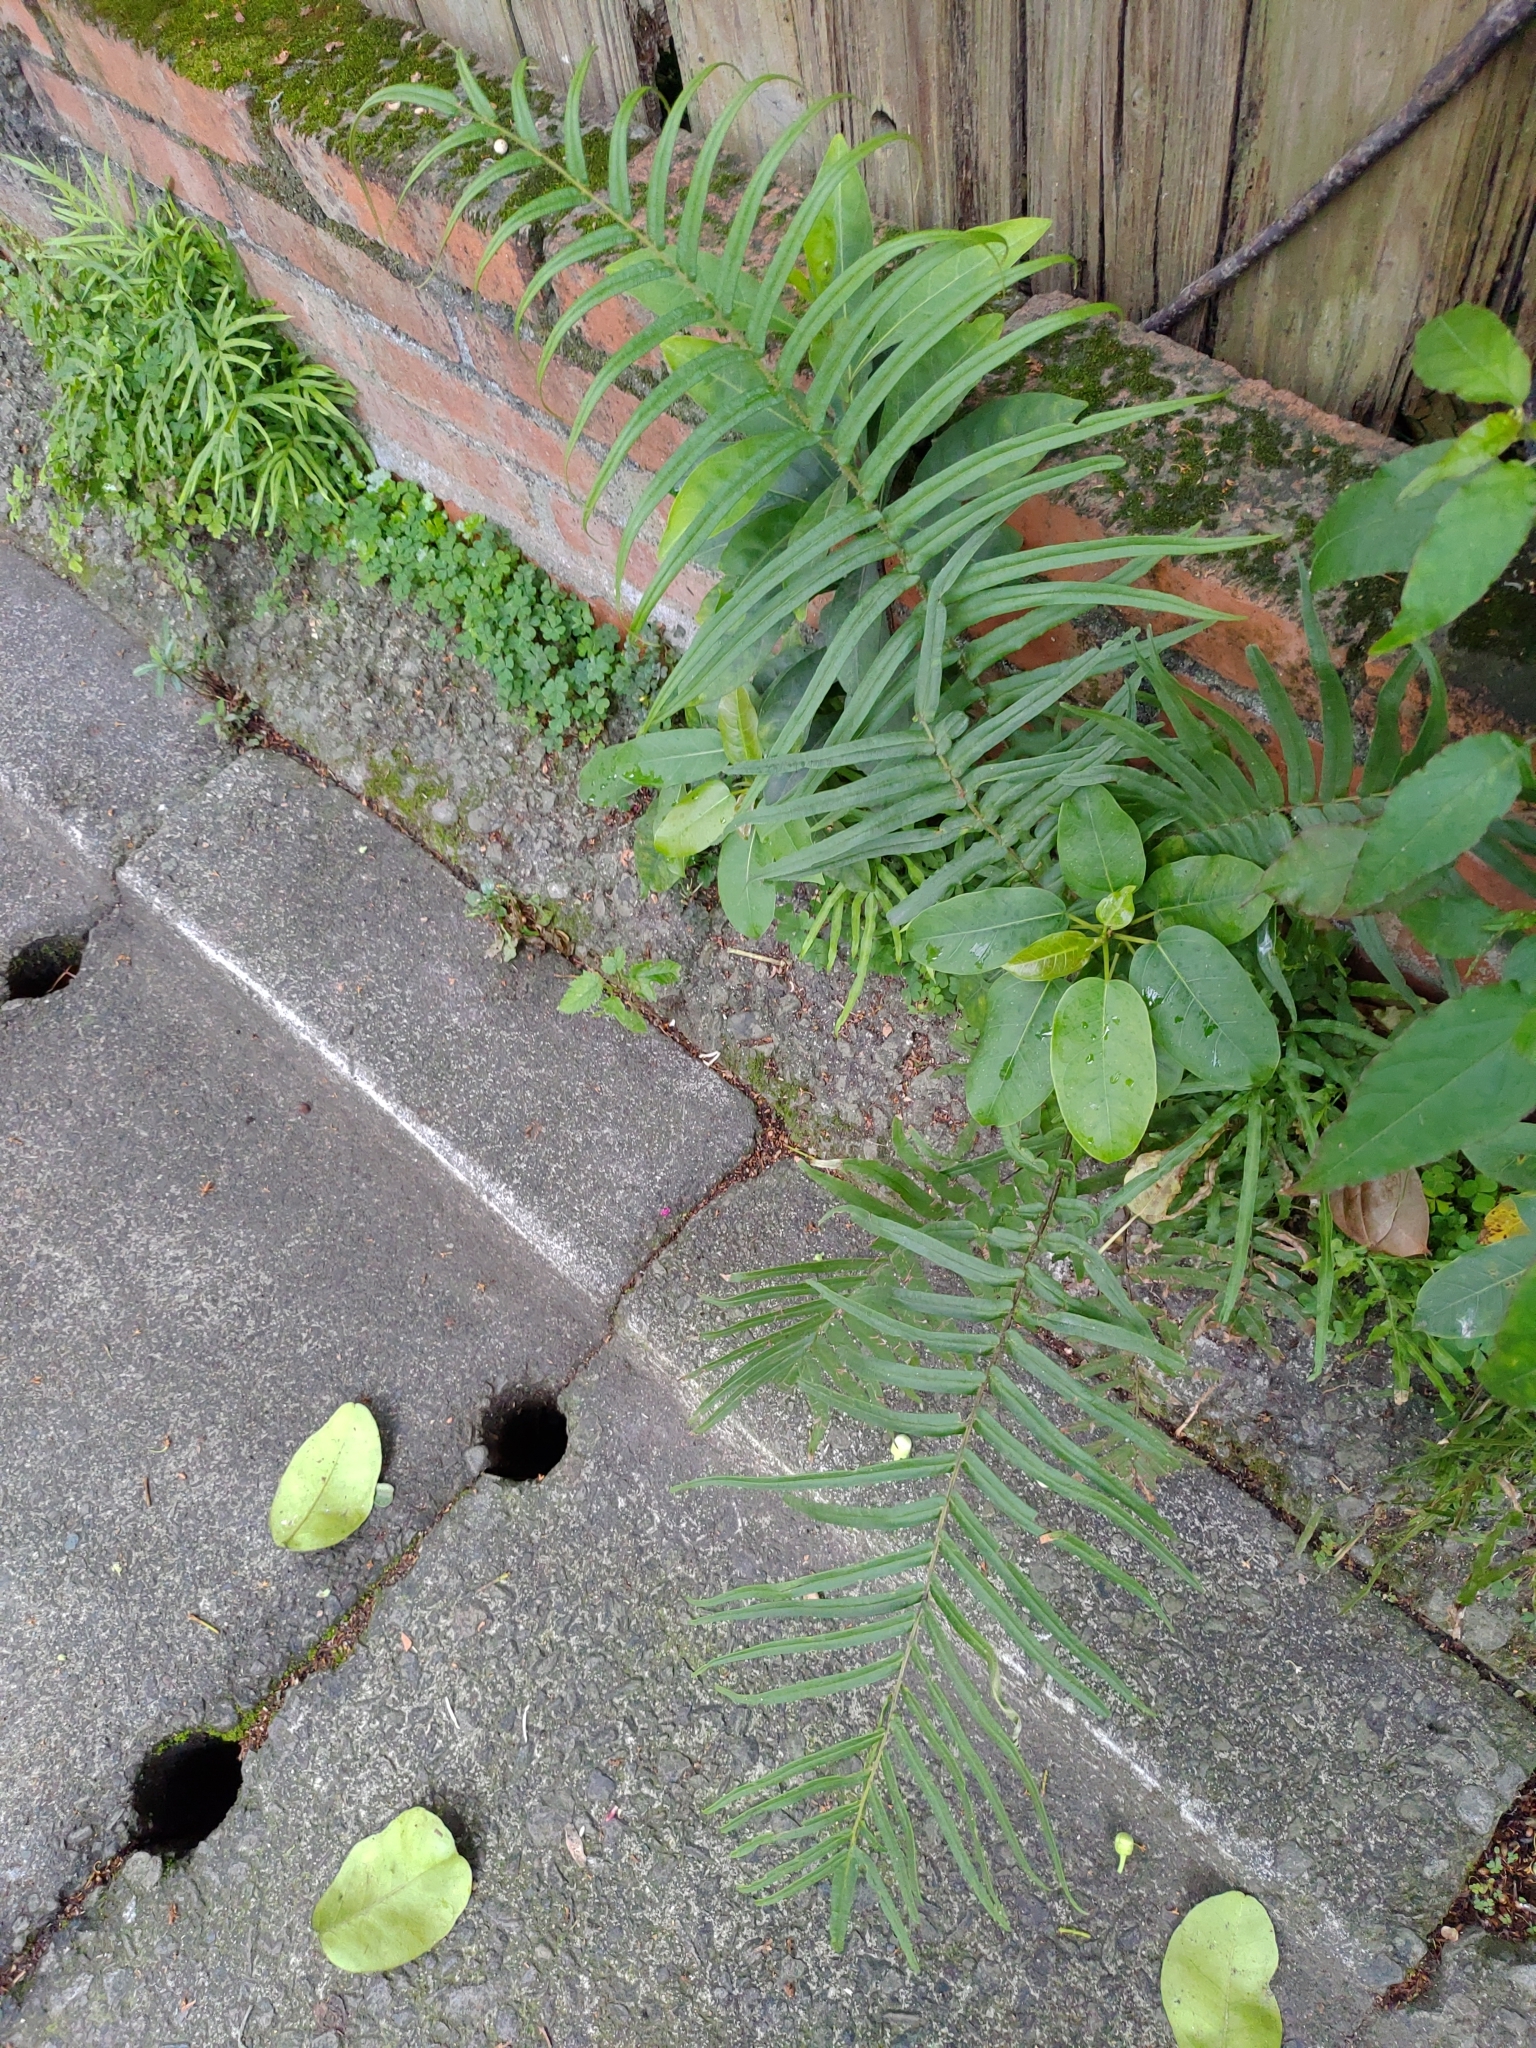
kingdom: Plantae
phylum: Tracheophyta
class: Polypodiopsida
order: Polypodiales
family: Pteridaceae
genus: Pteris
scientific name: Pteris vittata
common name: Ladder brake
